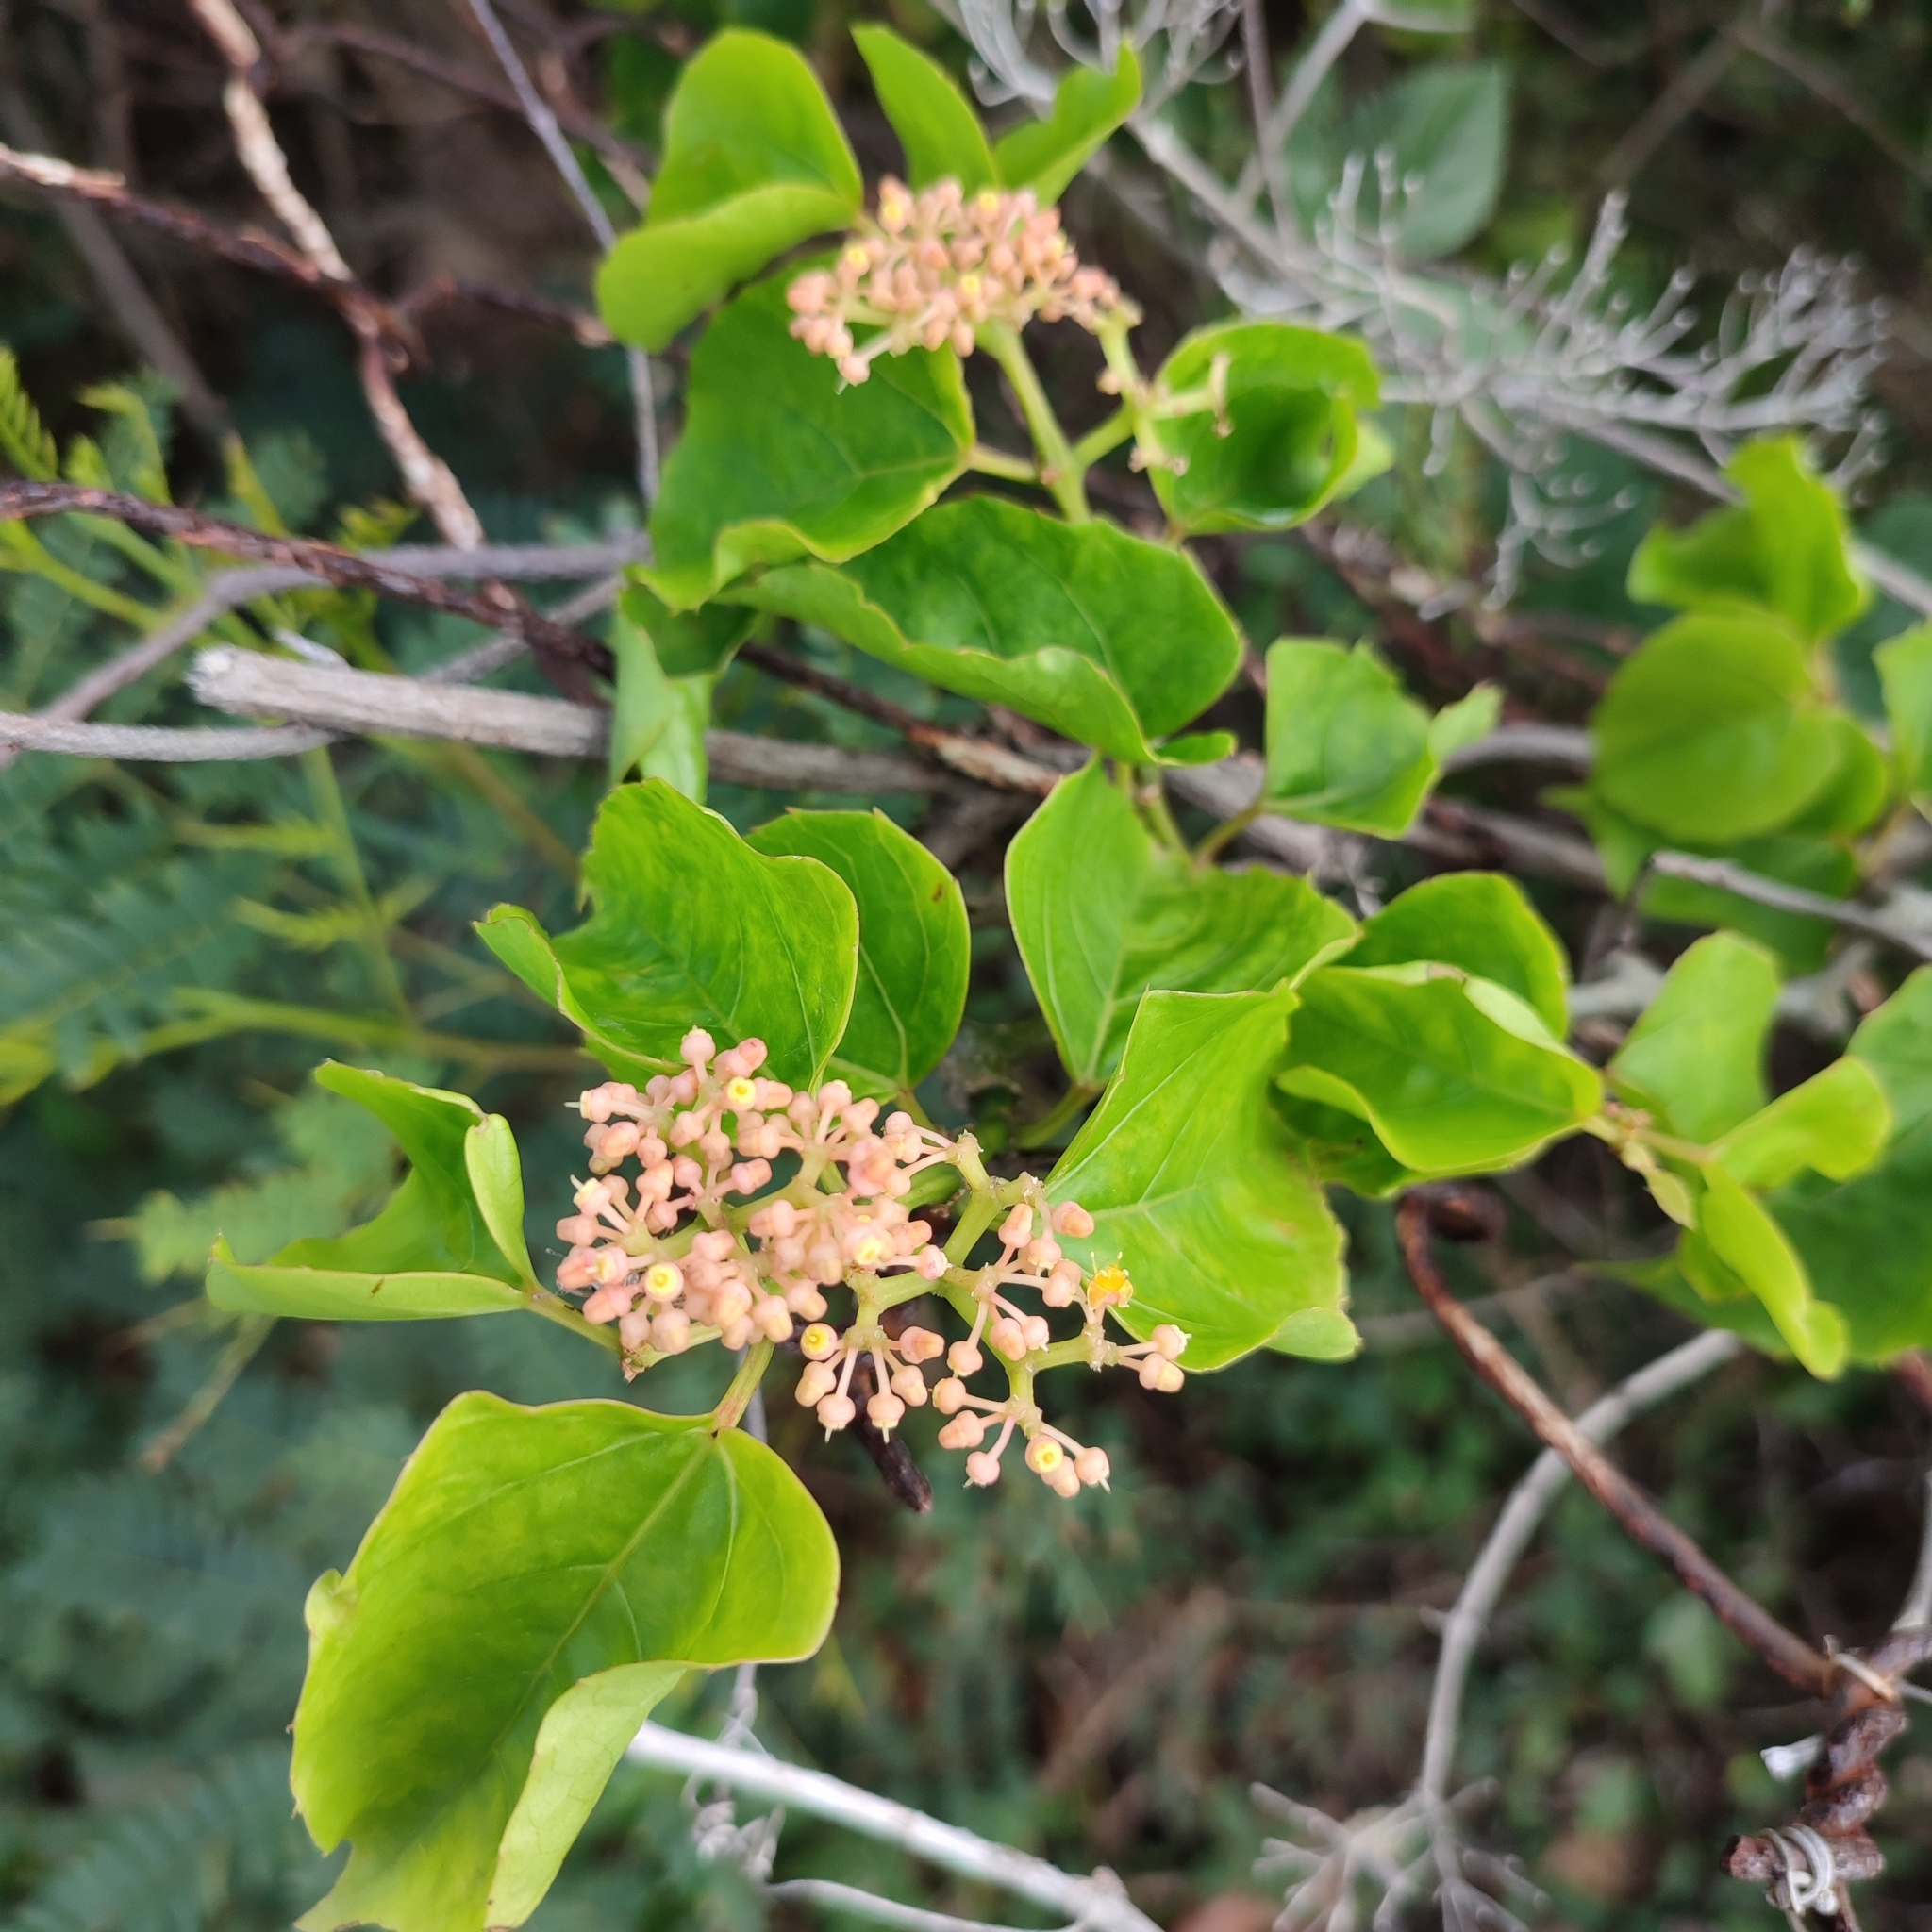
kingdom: Plantae
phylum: Tracheophyta
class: Magnoliopsida
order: Vitales
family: Vitaceae
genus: Cissus
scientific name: Cissus verticillata
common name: Princess vine
